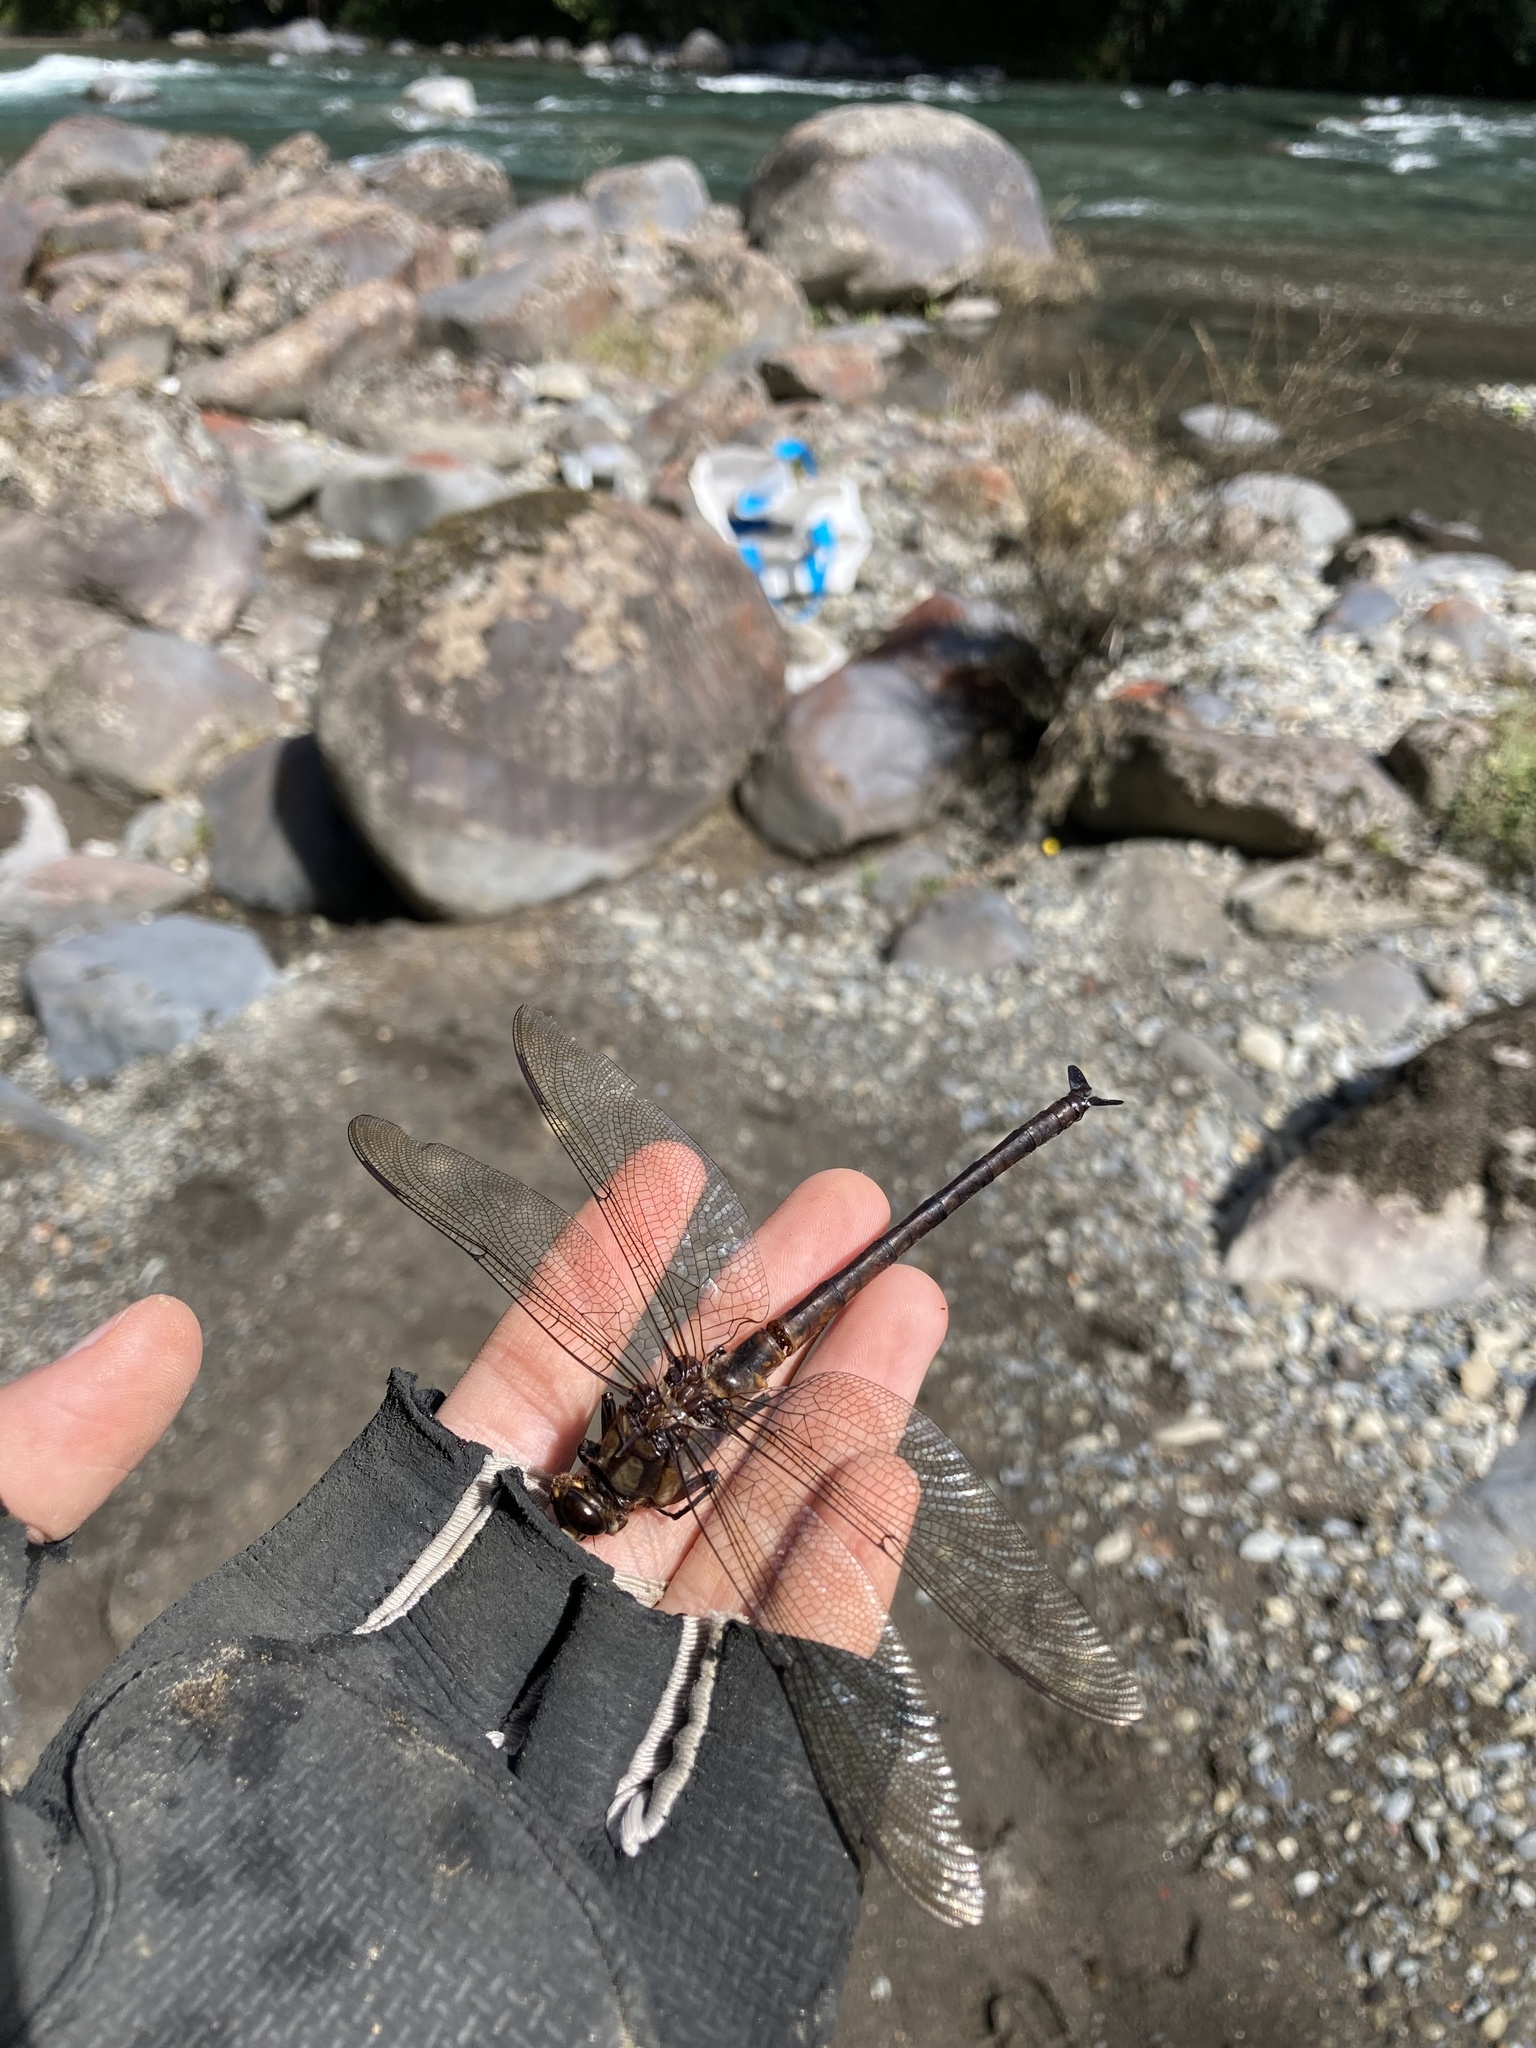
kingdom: Animalia
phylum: Arthropoda
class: Insecta
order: Odonata
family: Petaluridae
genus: Uropetala
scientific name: Uropetala carovei
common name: Bush giant dragonfly
